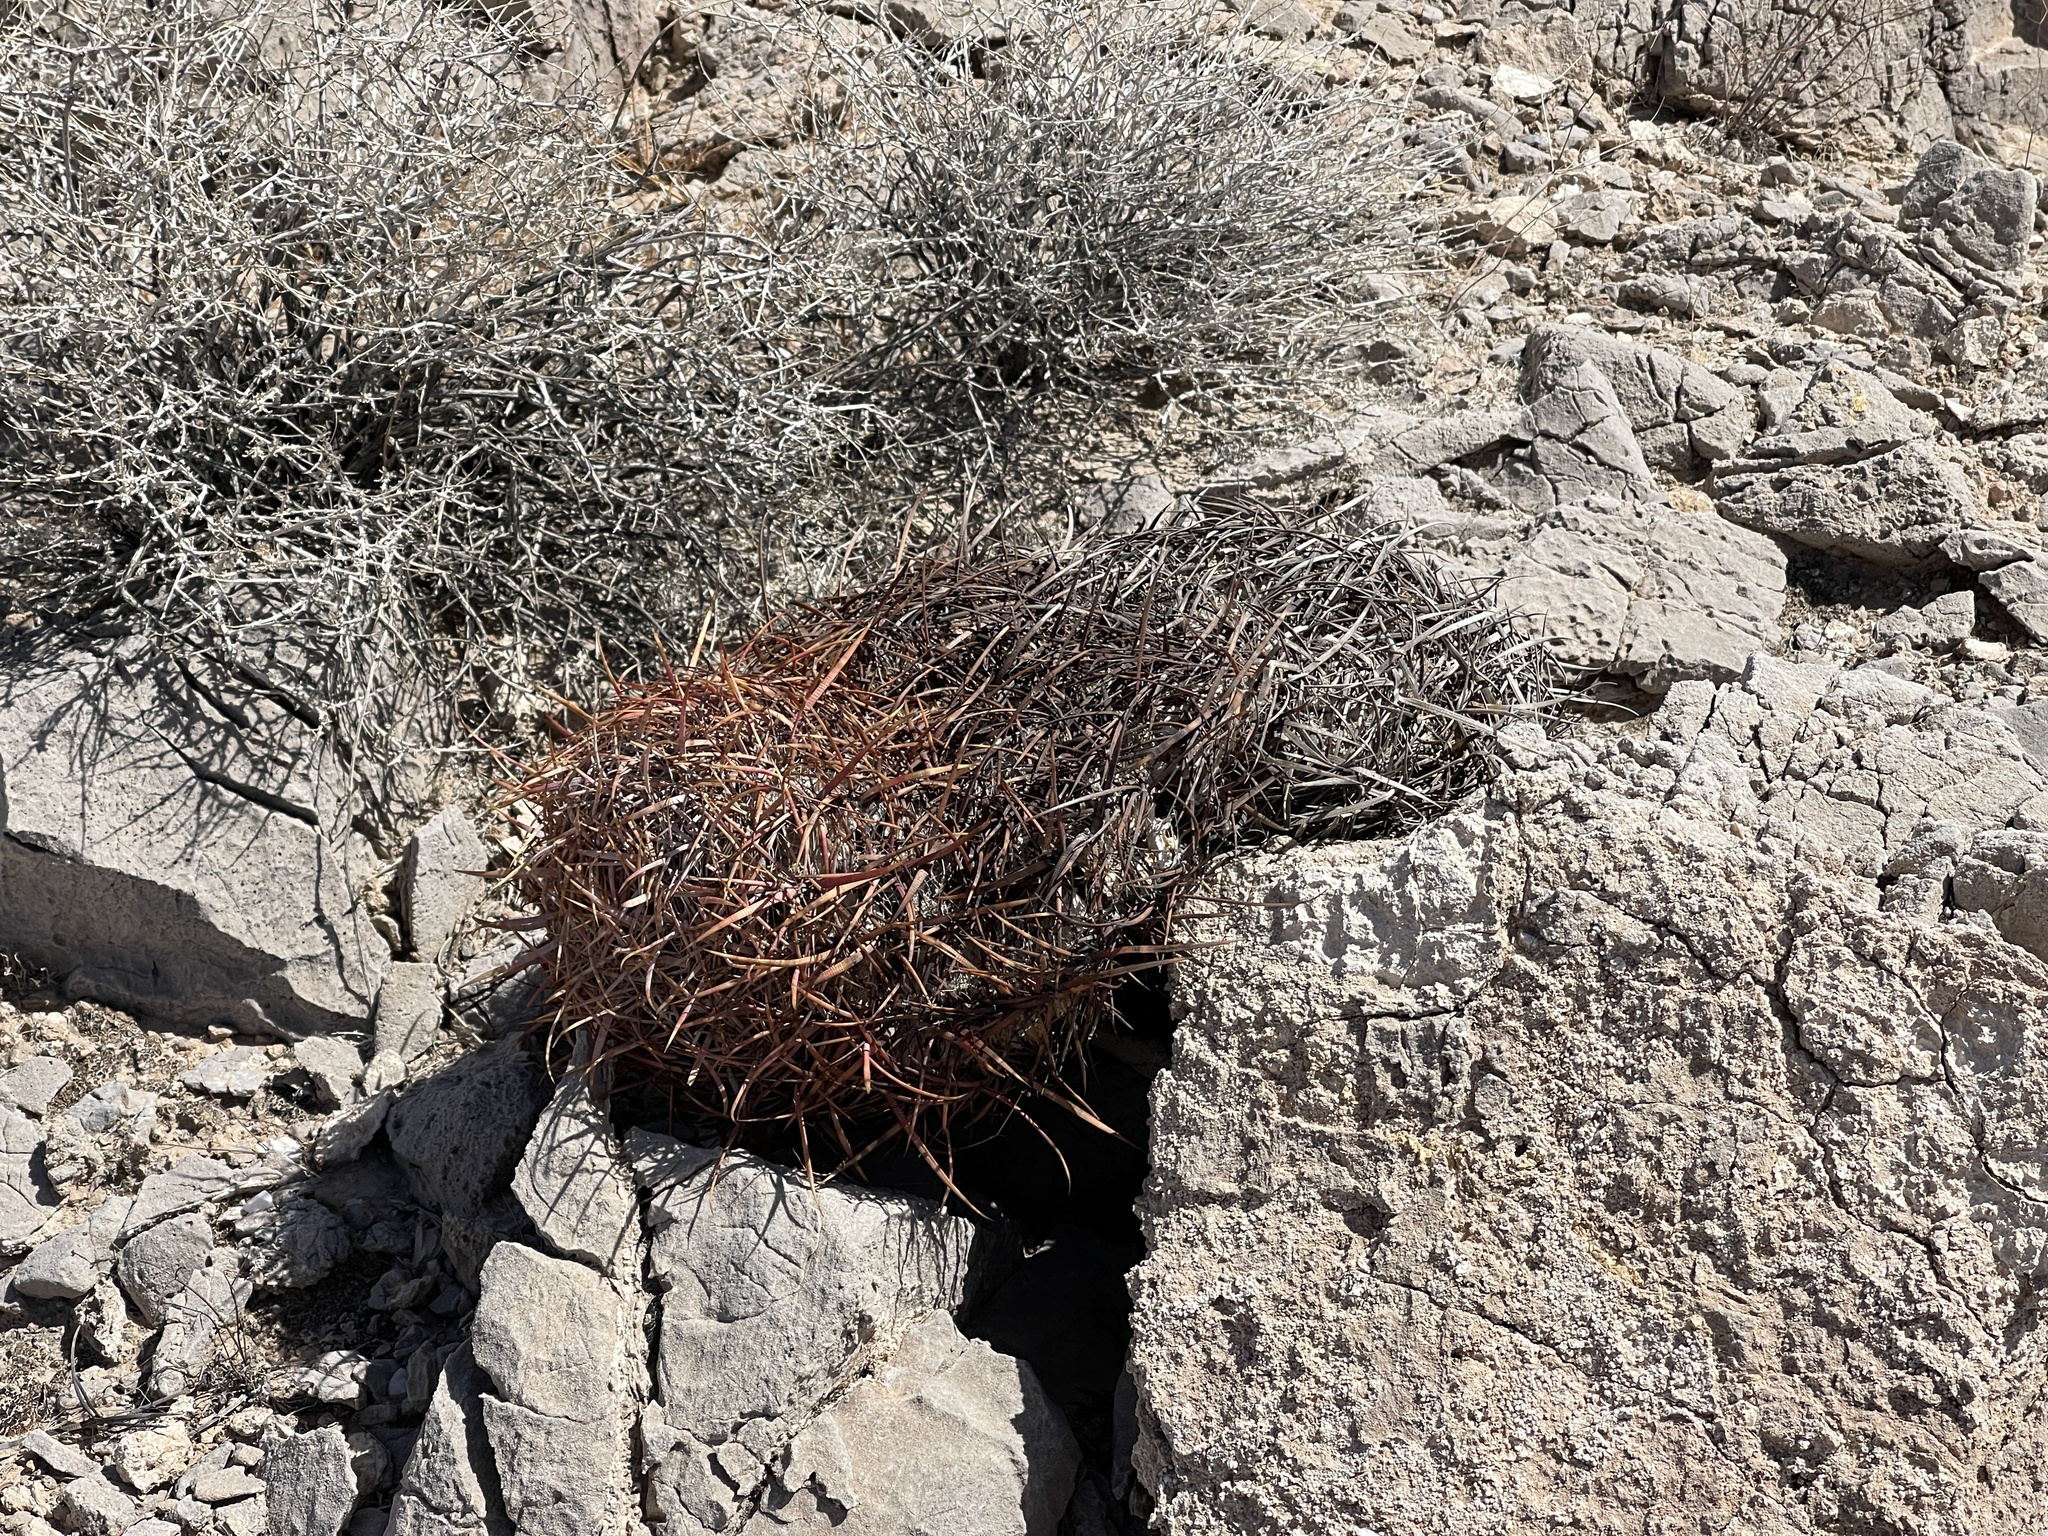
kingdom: Plantae
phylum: Tracheophyta
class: Magnoliopsida
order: Caryophyllales
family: Cactaceae
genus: Ferocactus
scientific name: Ferocactus cylindraceus
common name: California barrel cactus
